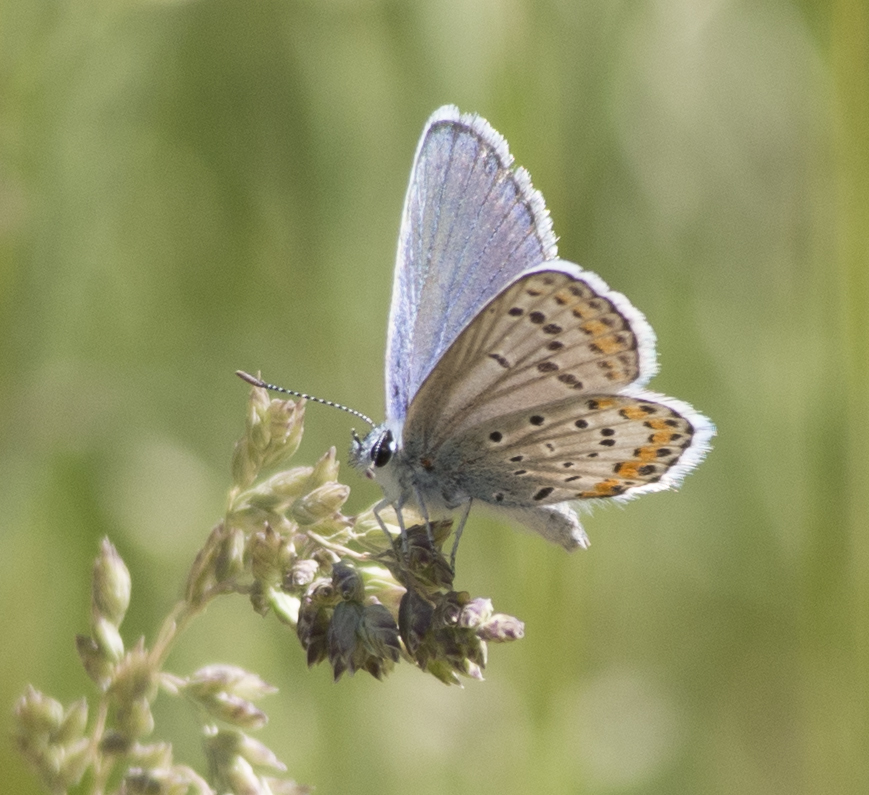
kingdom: Animalia
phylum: Arthropoda
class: Insecta
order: Lepidoptera
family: Lycaenidae
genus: Lycaeides
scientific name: Lycaeides melissa
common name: Melissa blue
